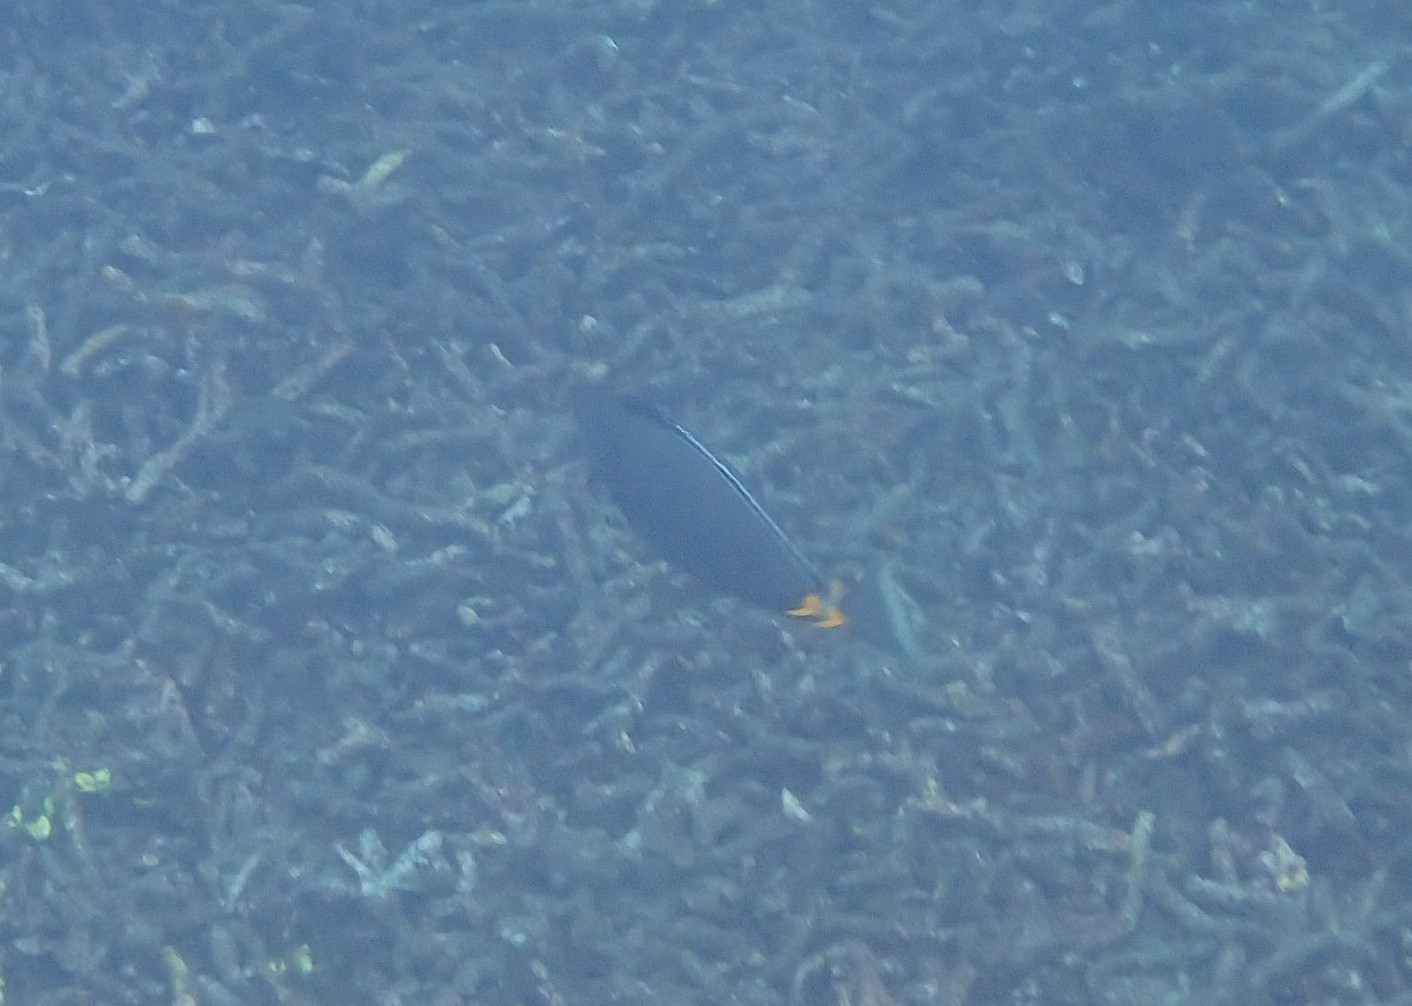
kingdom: Animalia
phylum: Chordata
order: Perciformes
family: Acanthuridae
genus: Naso
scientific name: Naso lituratus
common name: Orangespine unicornfish
